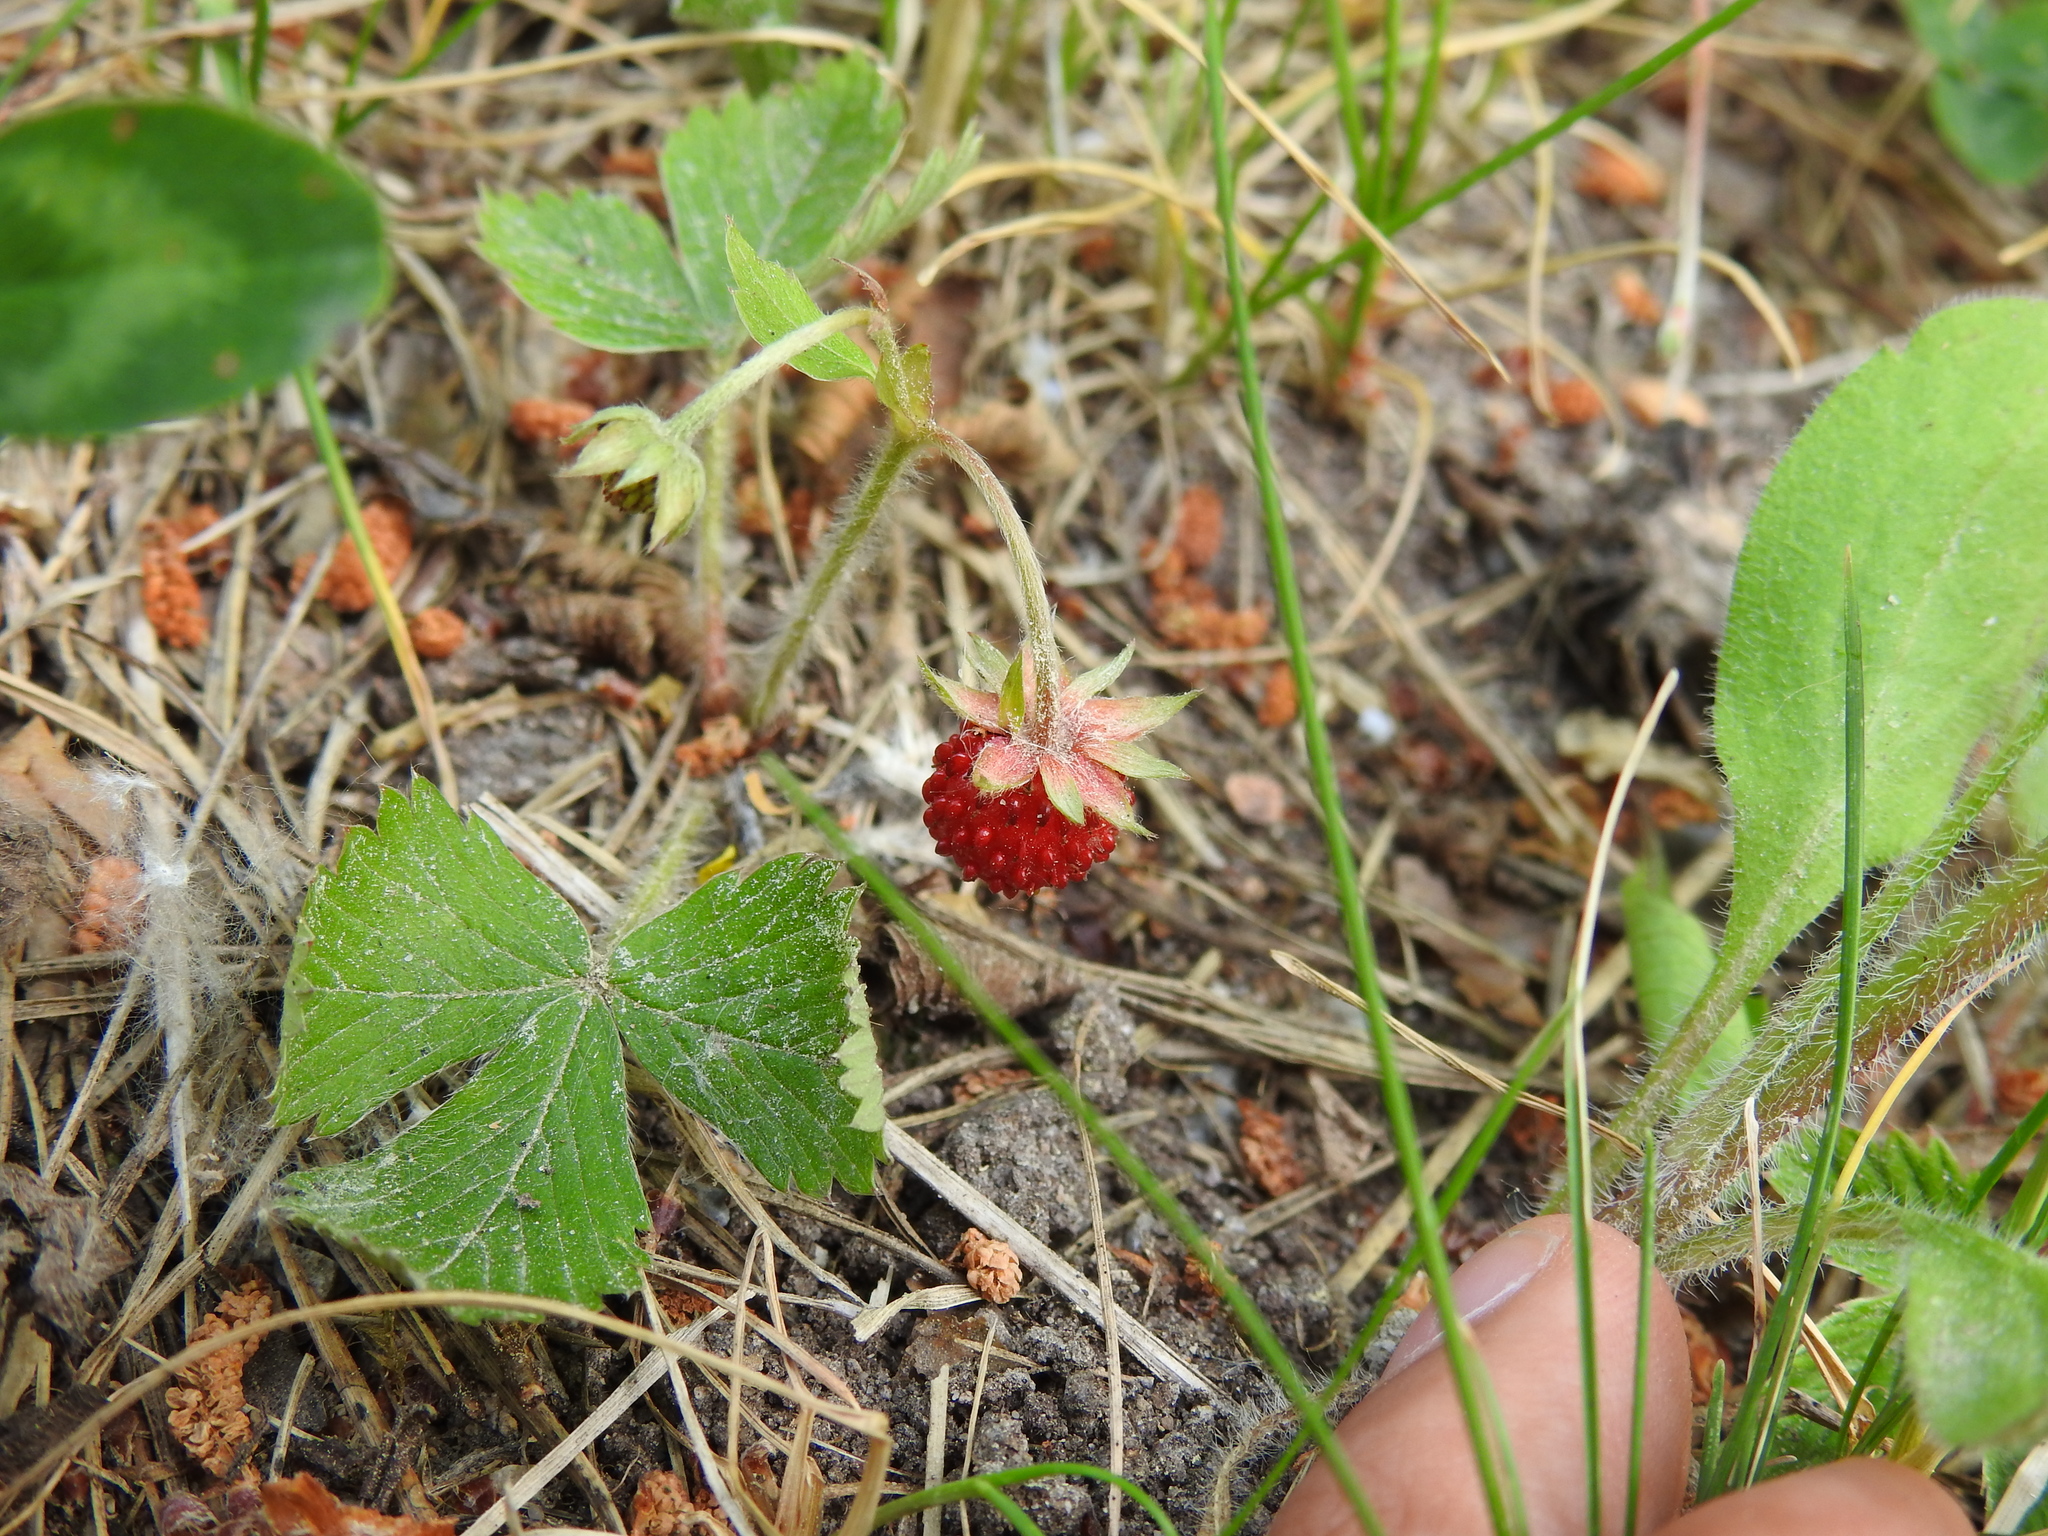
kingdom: Plantae
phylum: Tracheophyta
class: Magnoliopsida
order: Rosales
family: Rosaceae
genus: Fragaria
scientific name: Fragaria vesca
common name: Wild strawberry
